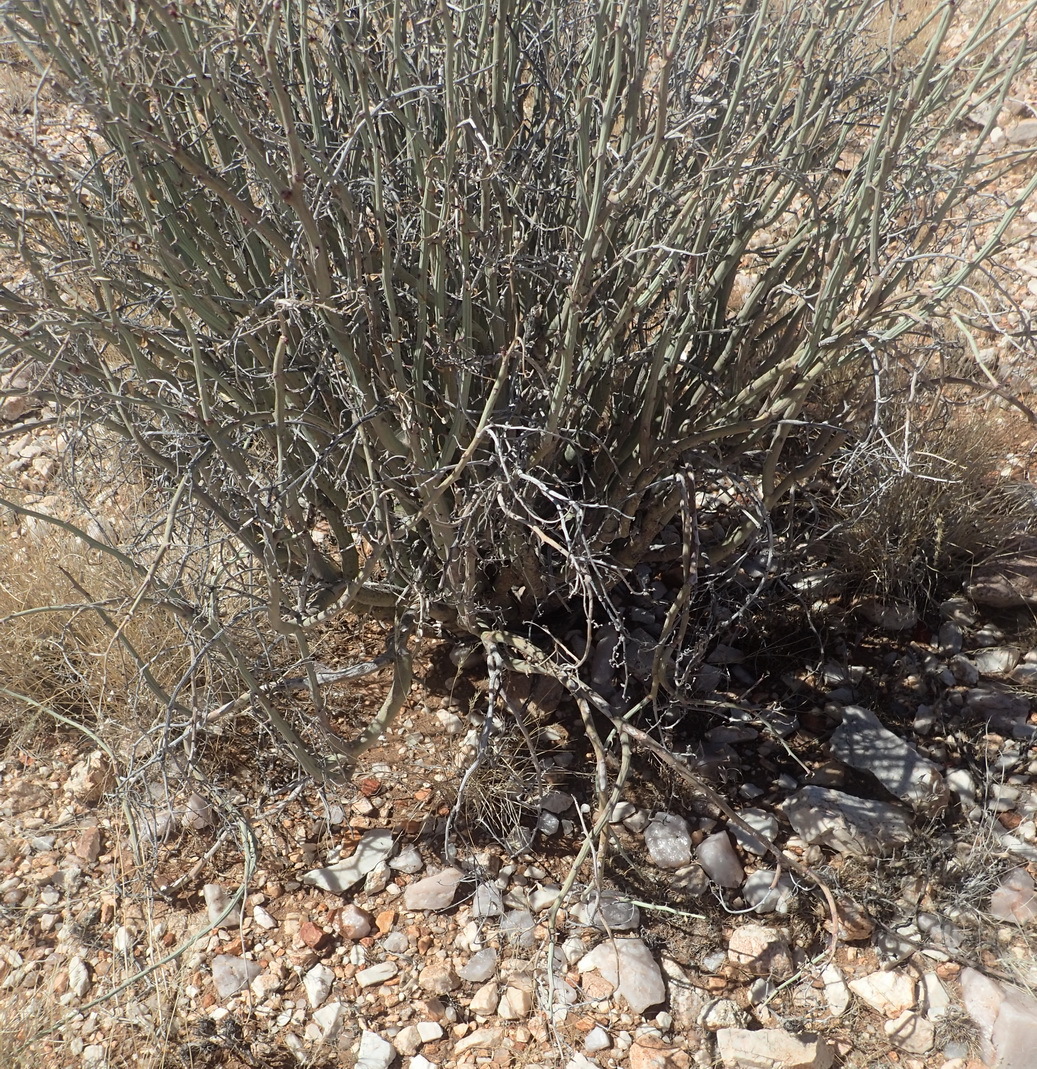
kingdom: Plantae
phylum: Tracheophyta
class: Magnoliopsida
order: Malpighiales
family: Euphorbiaceae
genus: Euphorbia
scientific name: Euphorbia gariepina
